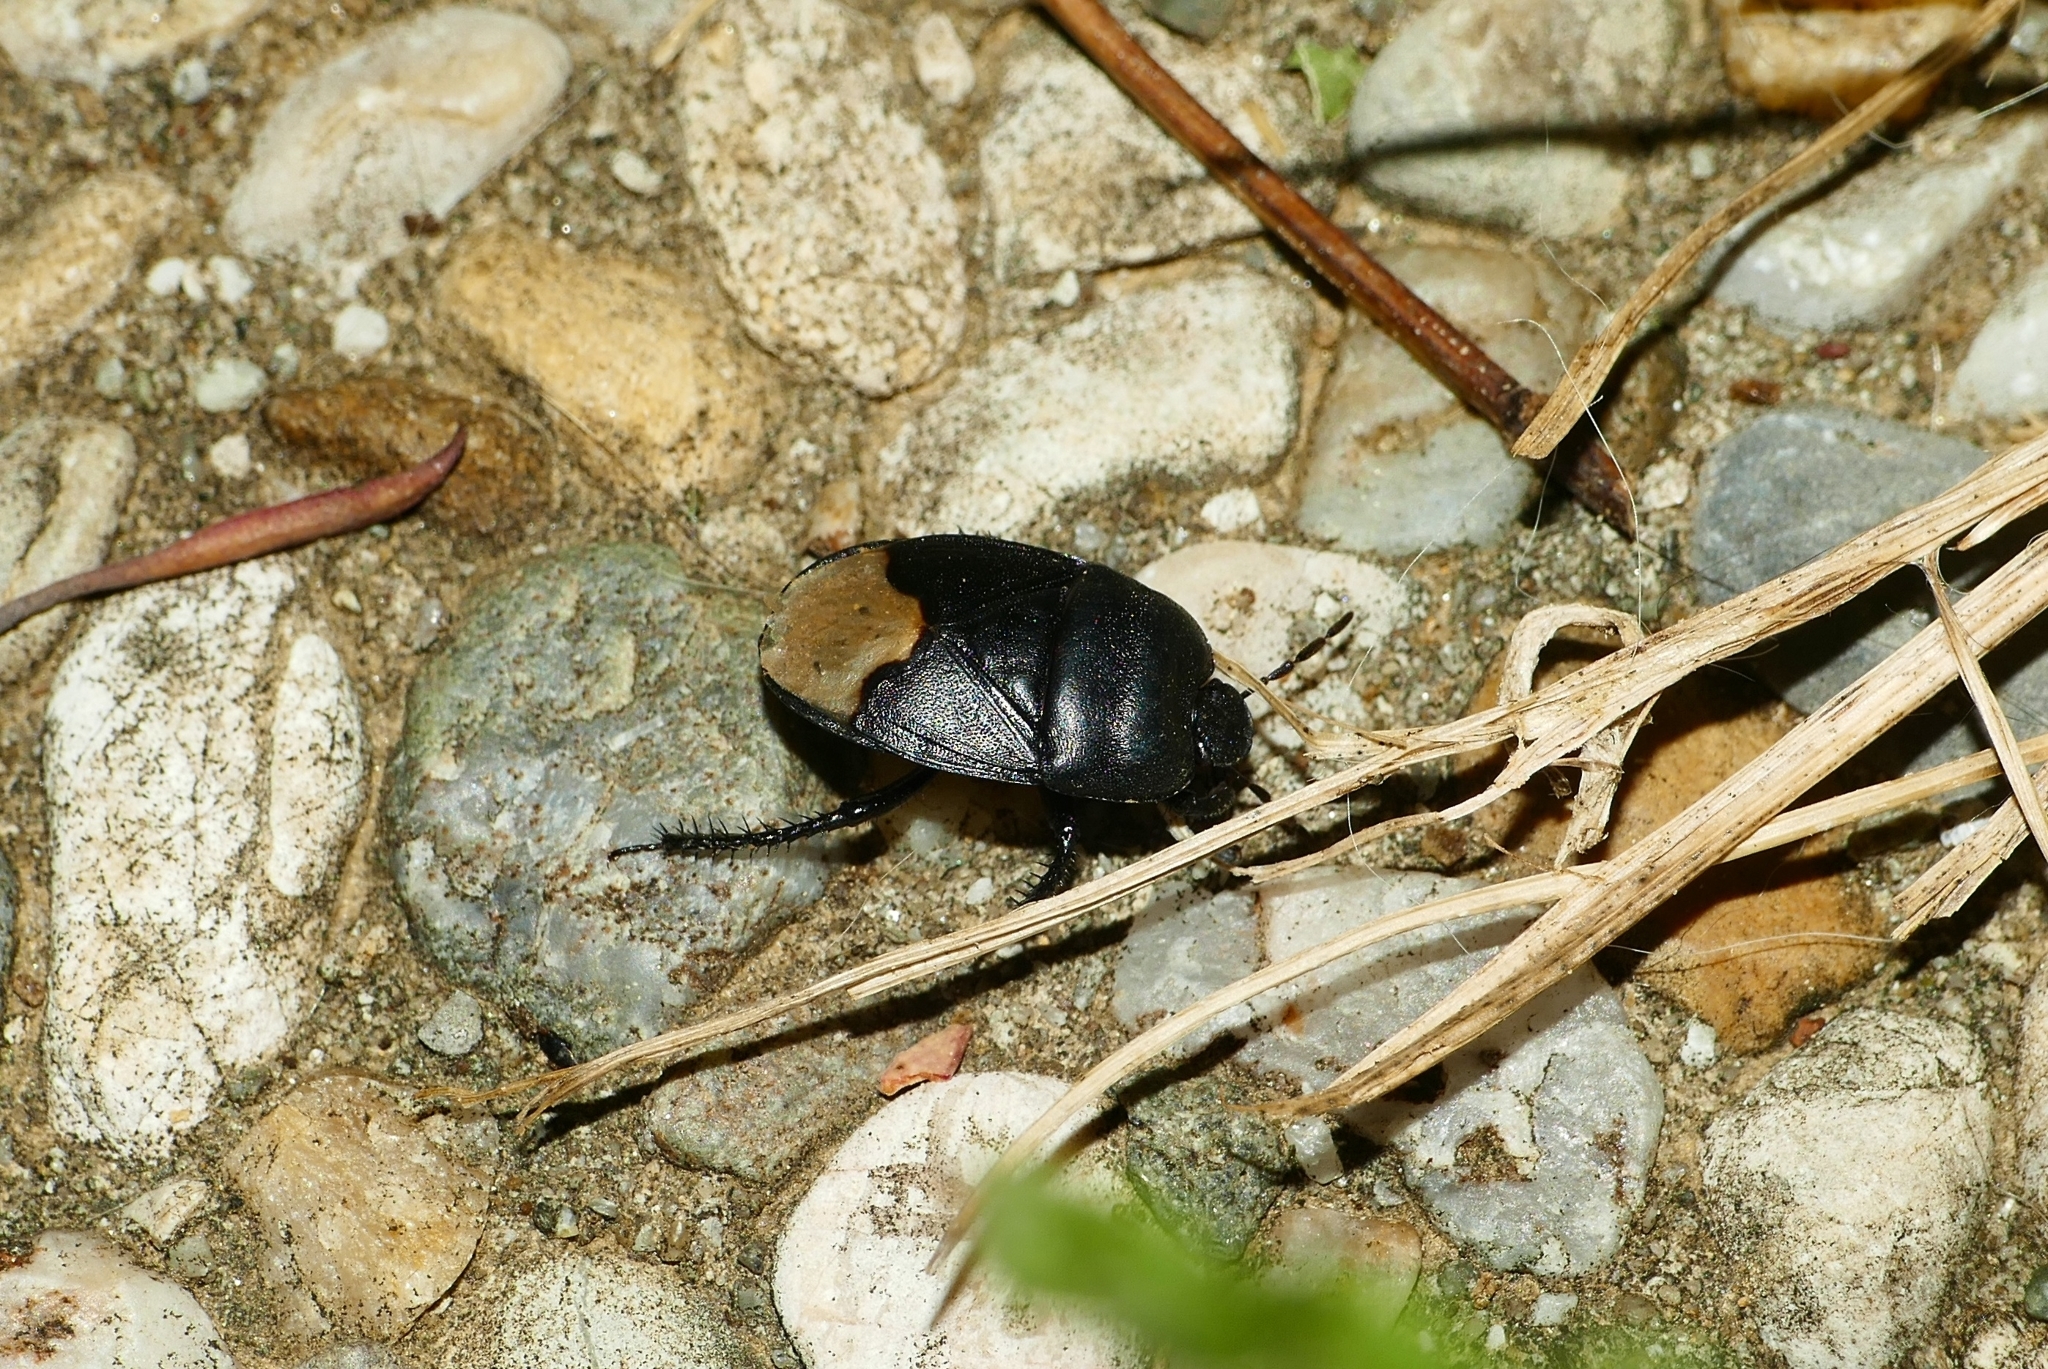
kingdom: Animalia
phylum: Arthropoda
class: Insecta
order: Hemiptera
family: Cydnidae
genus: Cydnus
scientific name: Cydnus aterrimus
